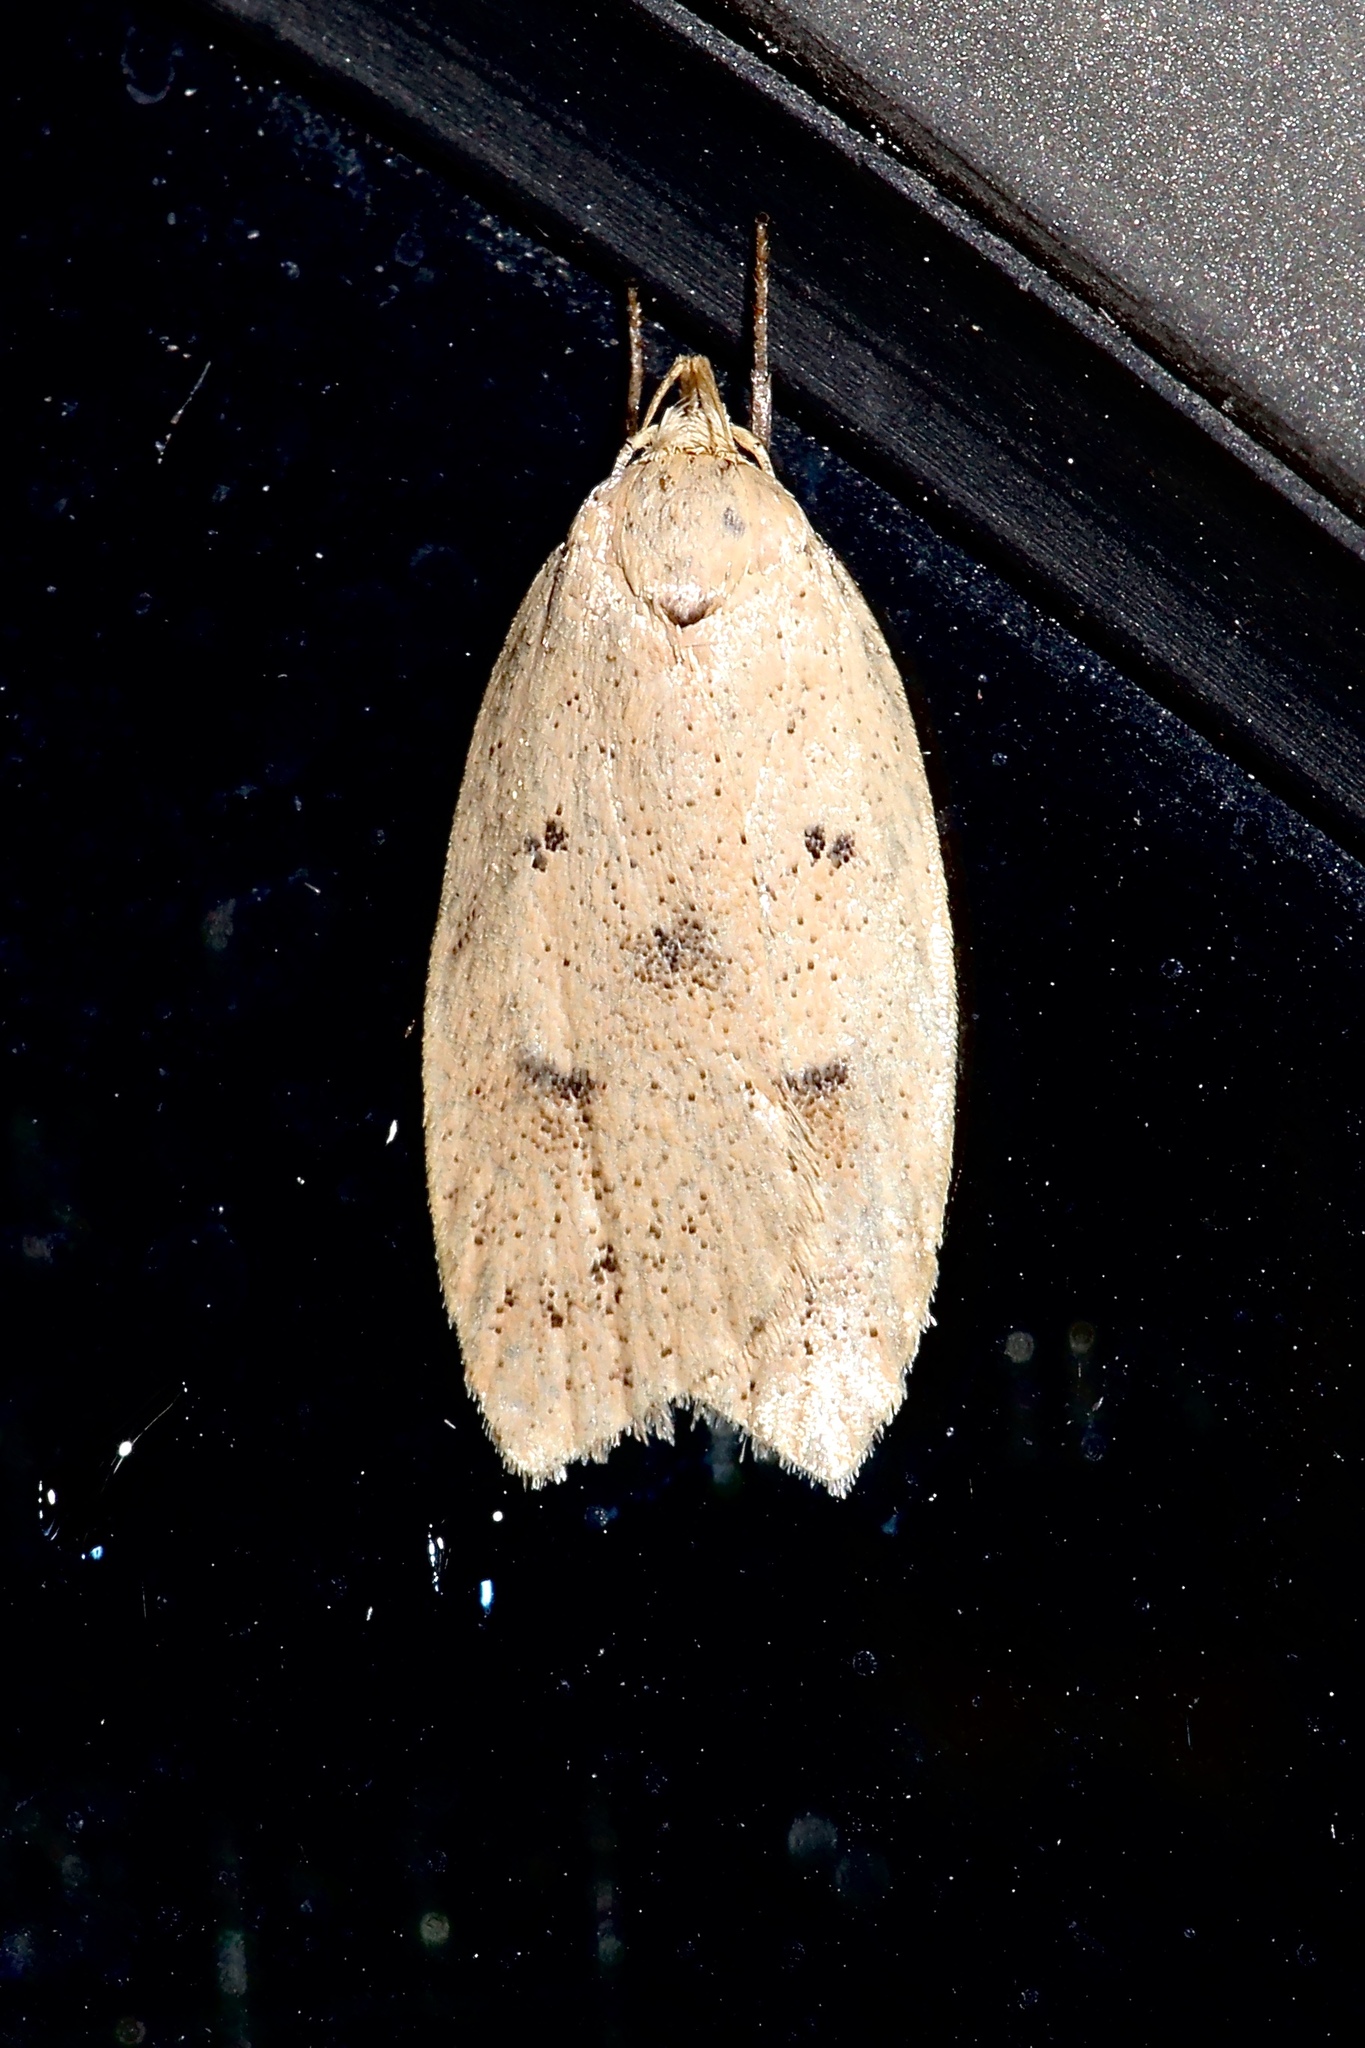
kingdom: Animalia
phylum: Arthropoda
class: Insecta
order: Lepidoptera
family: Peleopodidae
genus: Machimia
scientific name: Machimia tentoriferella
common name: Gold-striped leaftier moth
